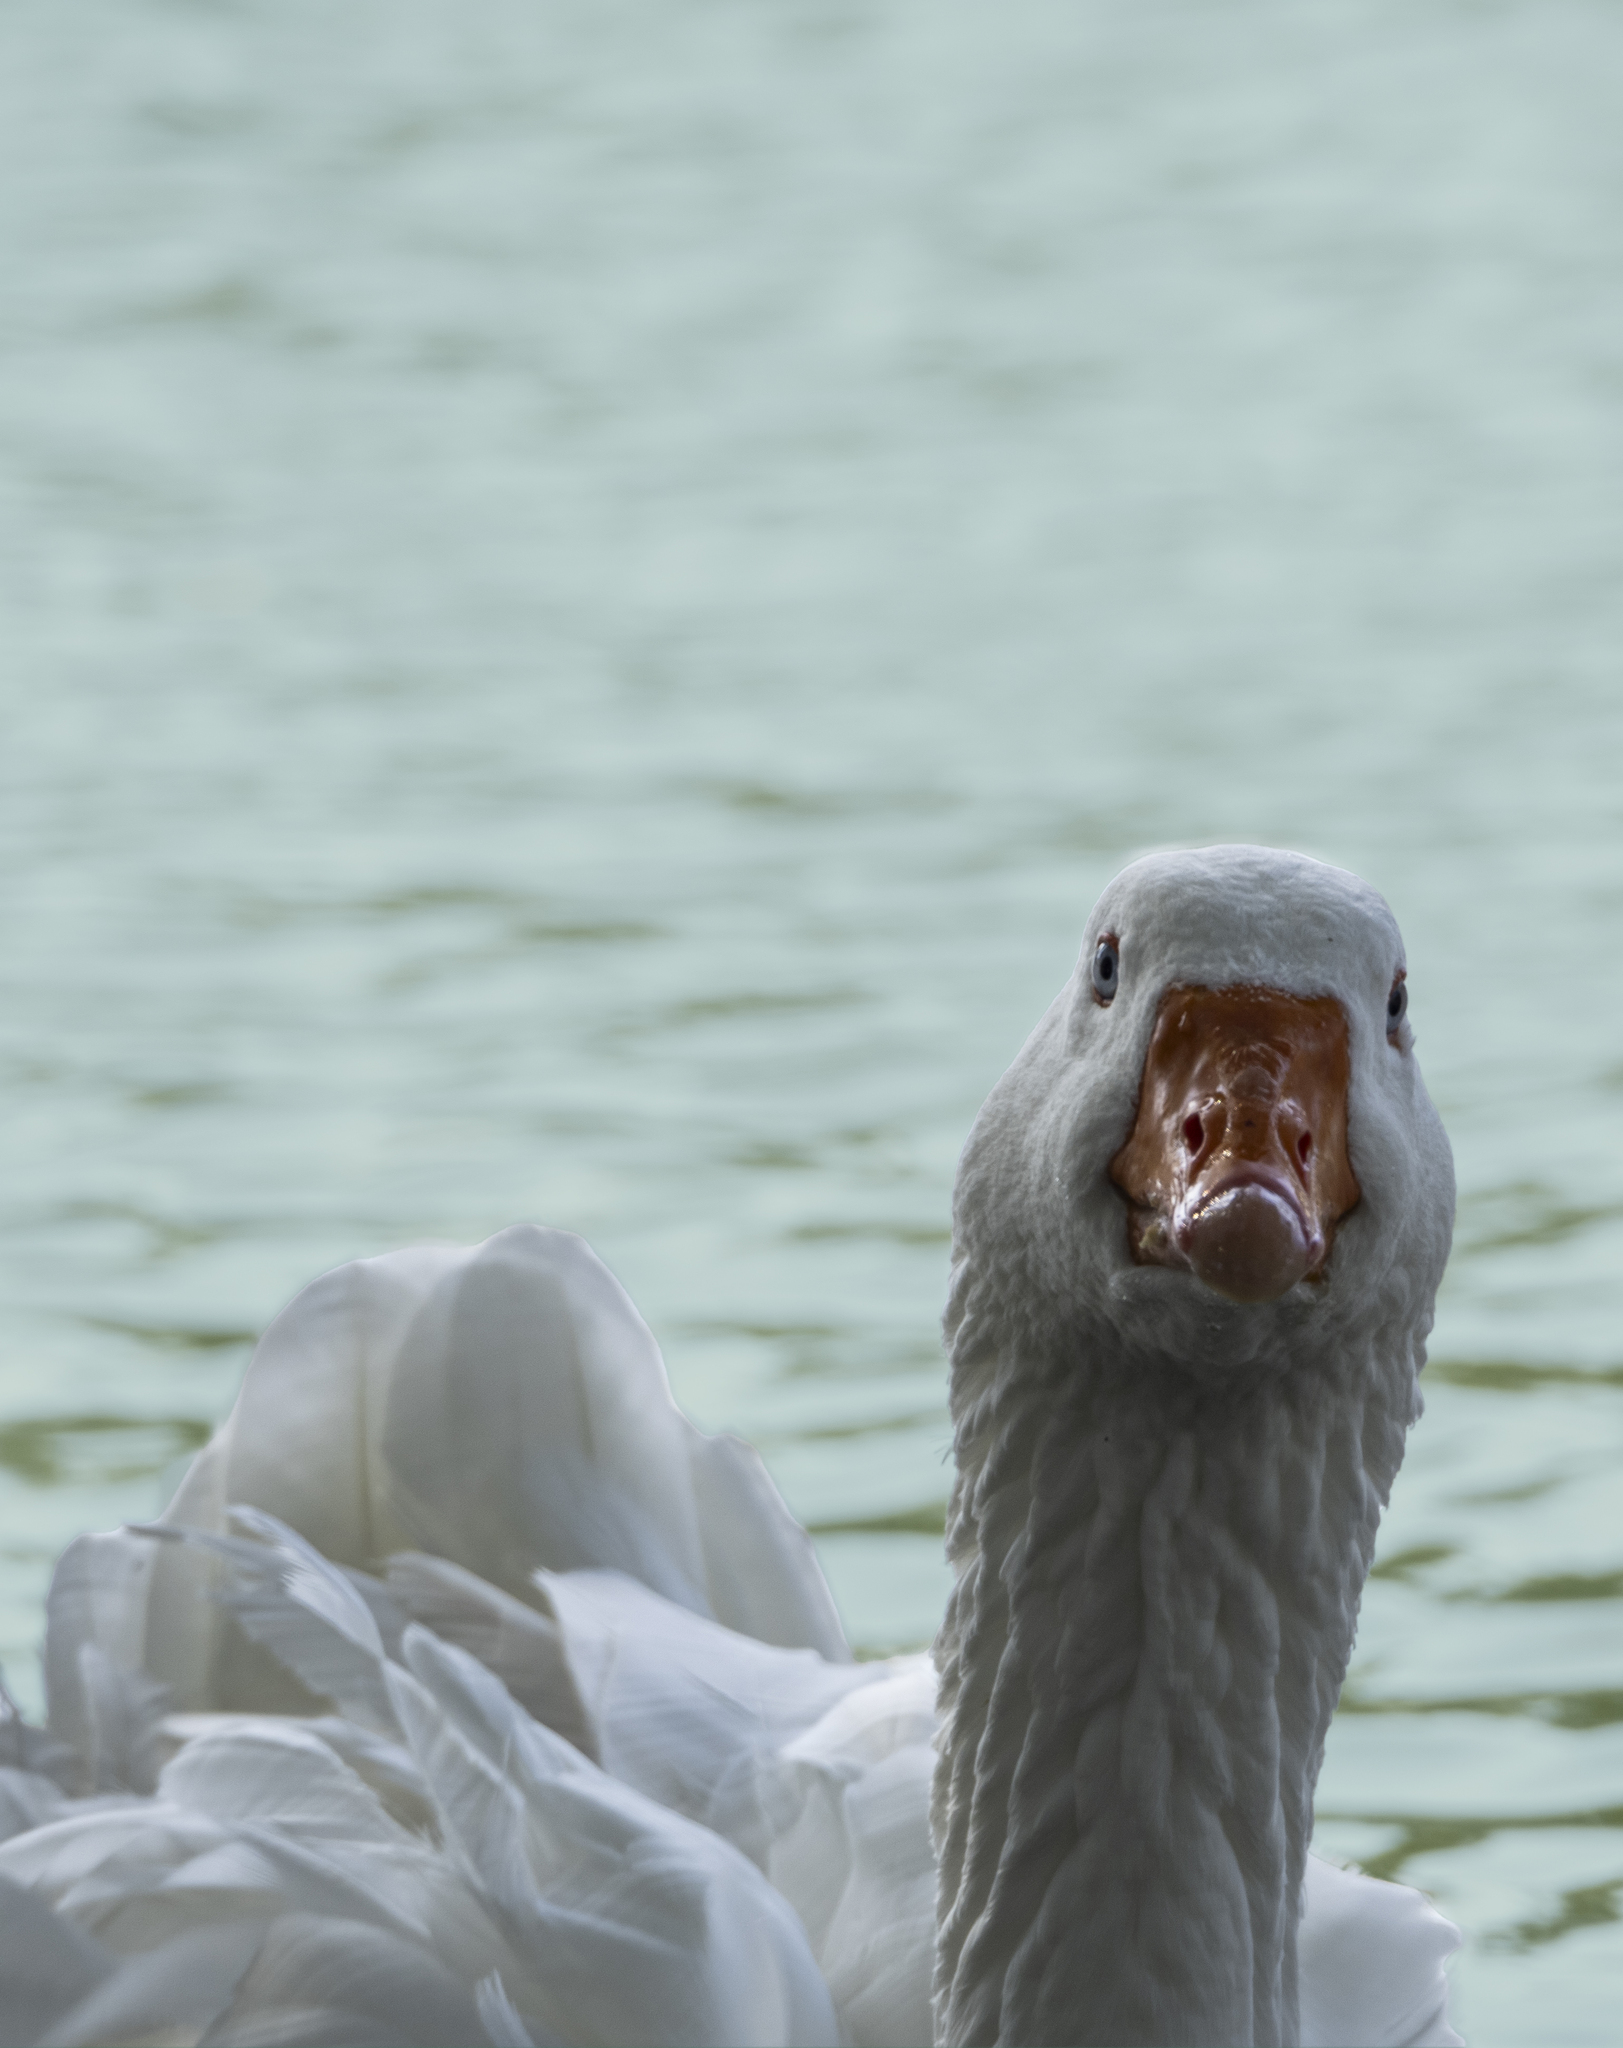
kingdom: Animalia
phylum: Chordata
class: Aves
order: Anseriformes
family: Anatidae
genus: Anser
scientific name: Anser anser
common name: Greylag goose
